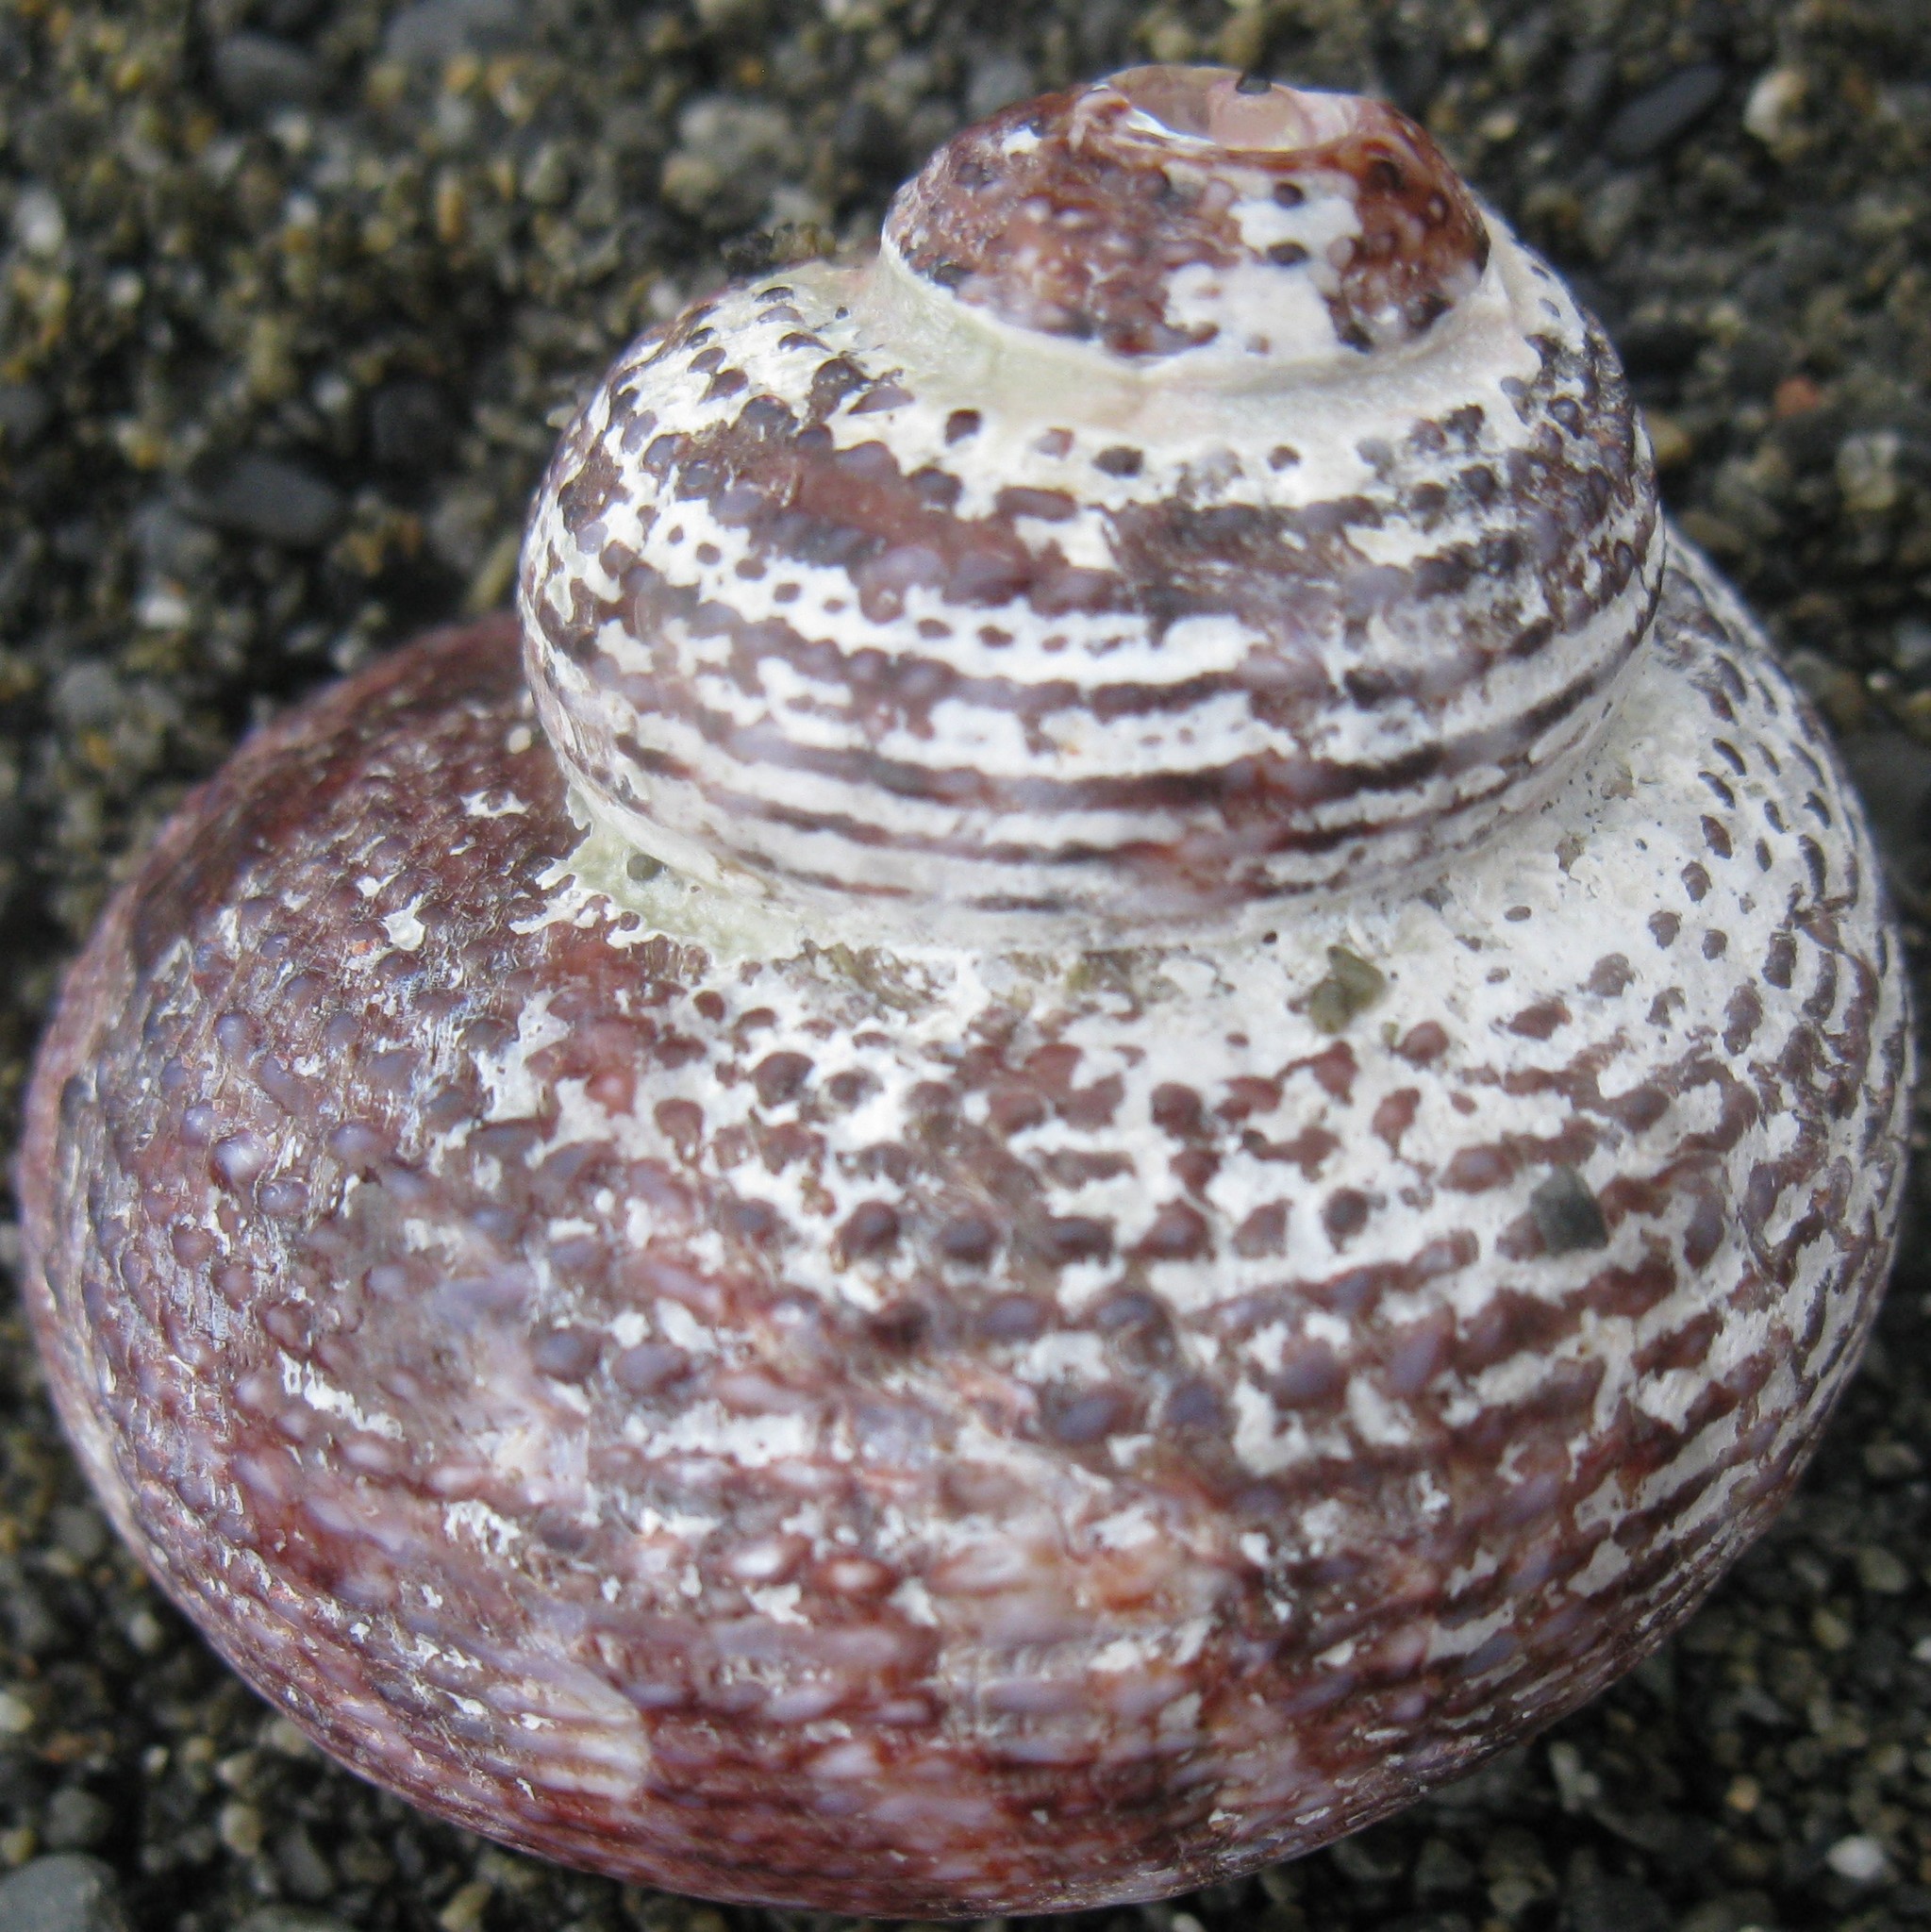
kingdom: Animalia
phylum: Mollusca
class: Gastropoda
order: Trochida
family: Turbinidae
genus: Modelia
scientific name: Modelia granosa
